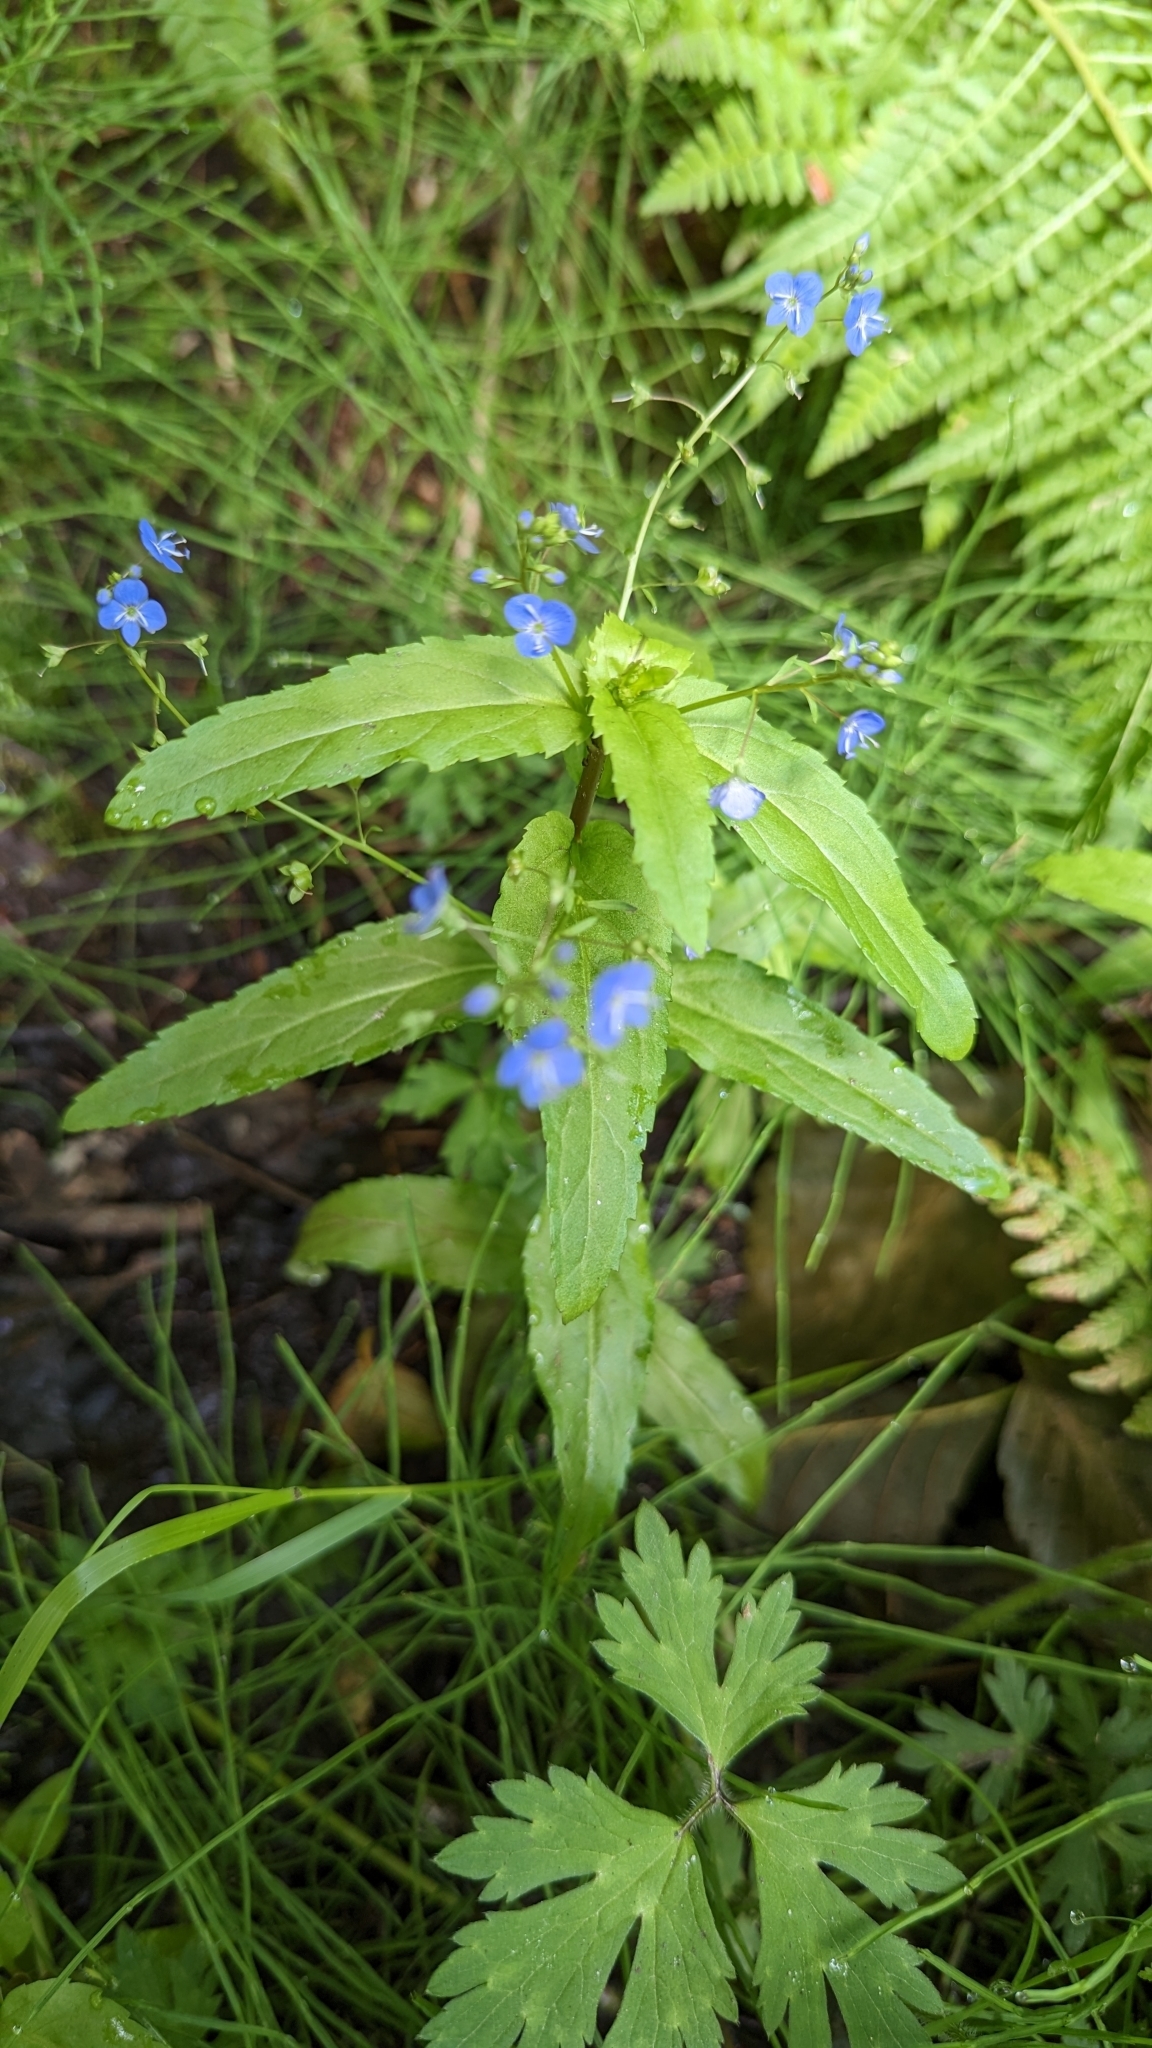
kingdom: Plantae
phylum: Tracheophyta
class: Magnoliopsida
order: Lamiales
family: Plantaginaceae
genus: Veronica
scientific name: Veronica americana
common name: American brooklime
